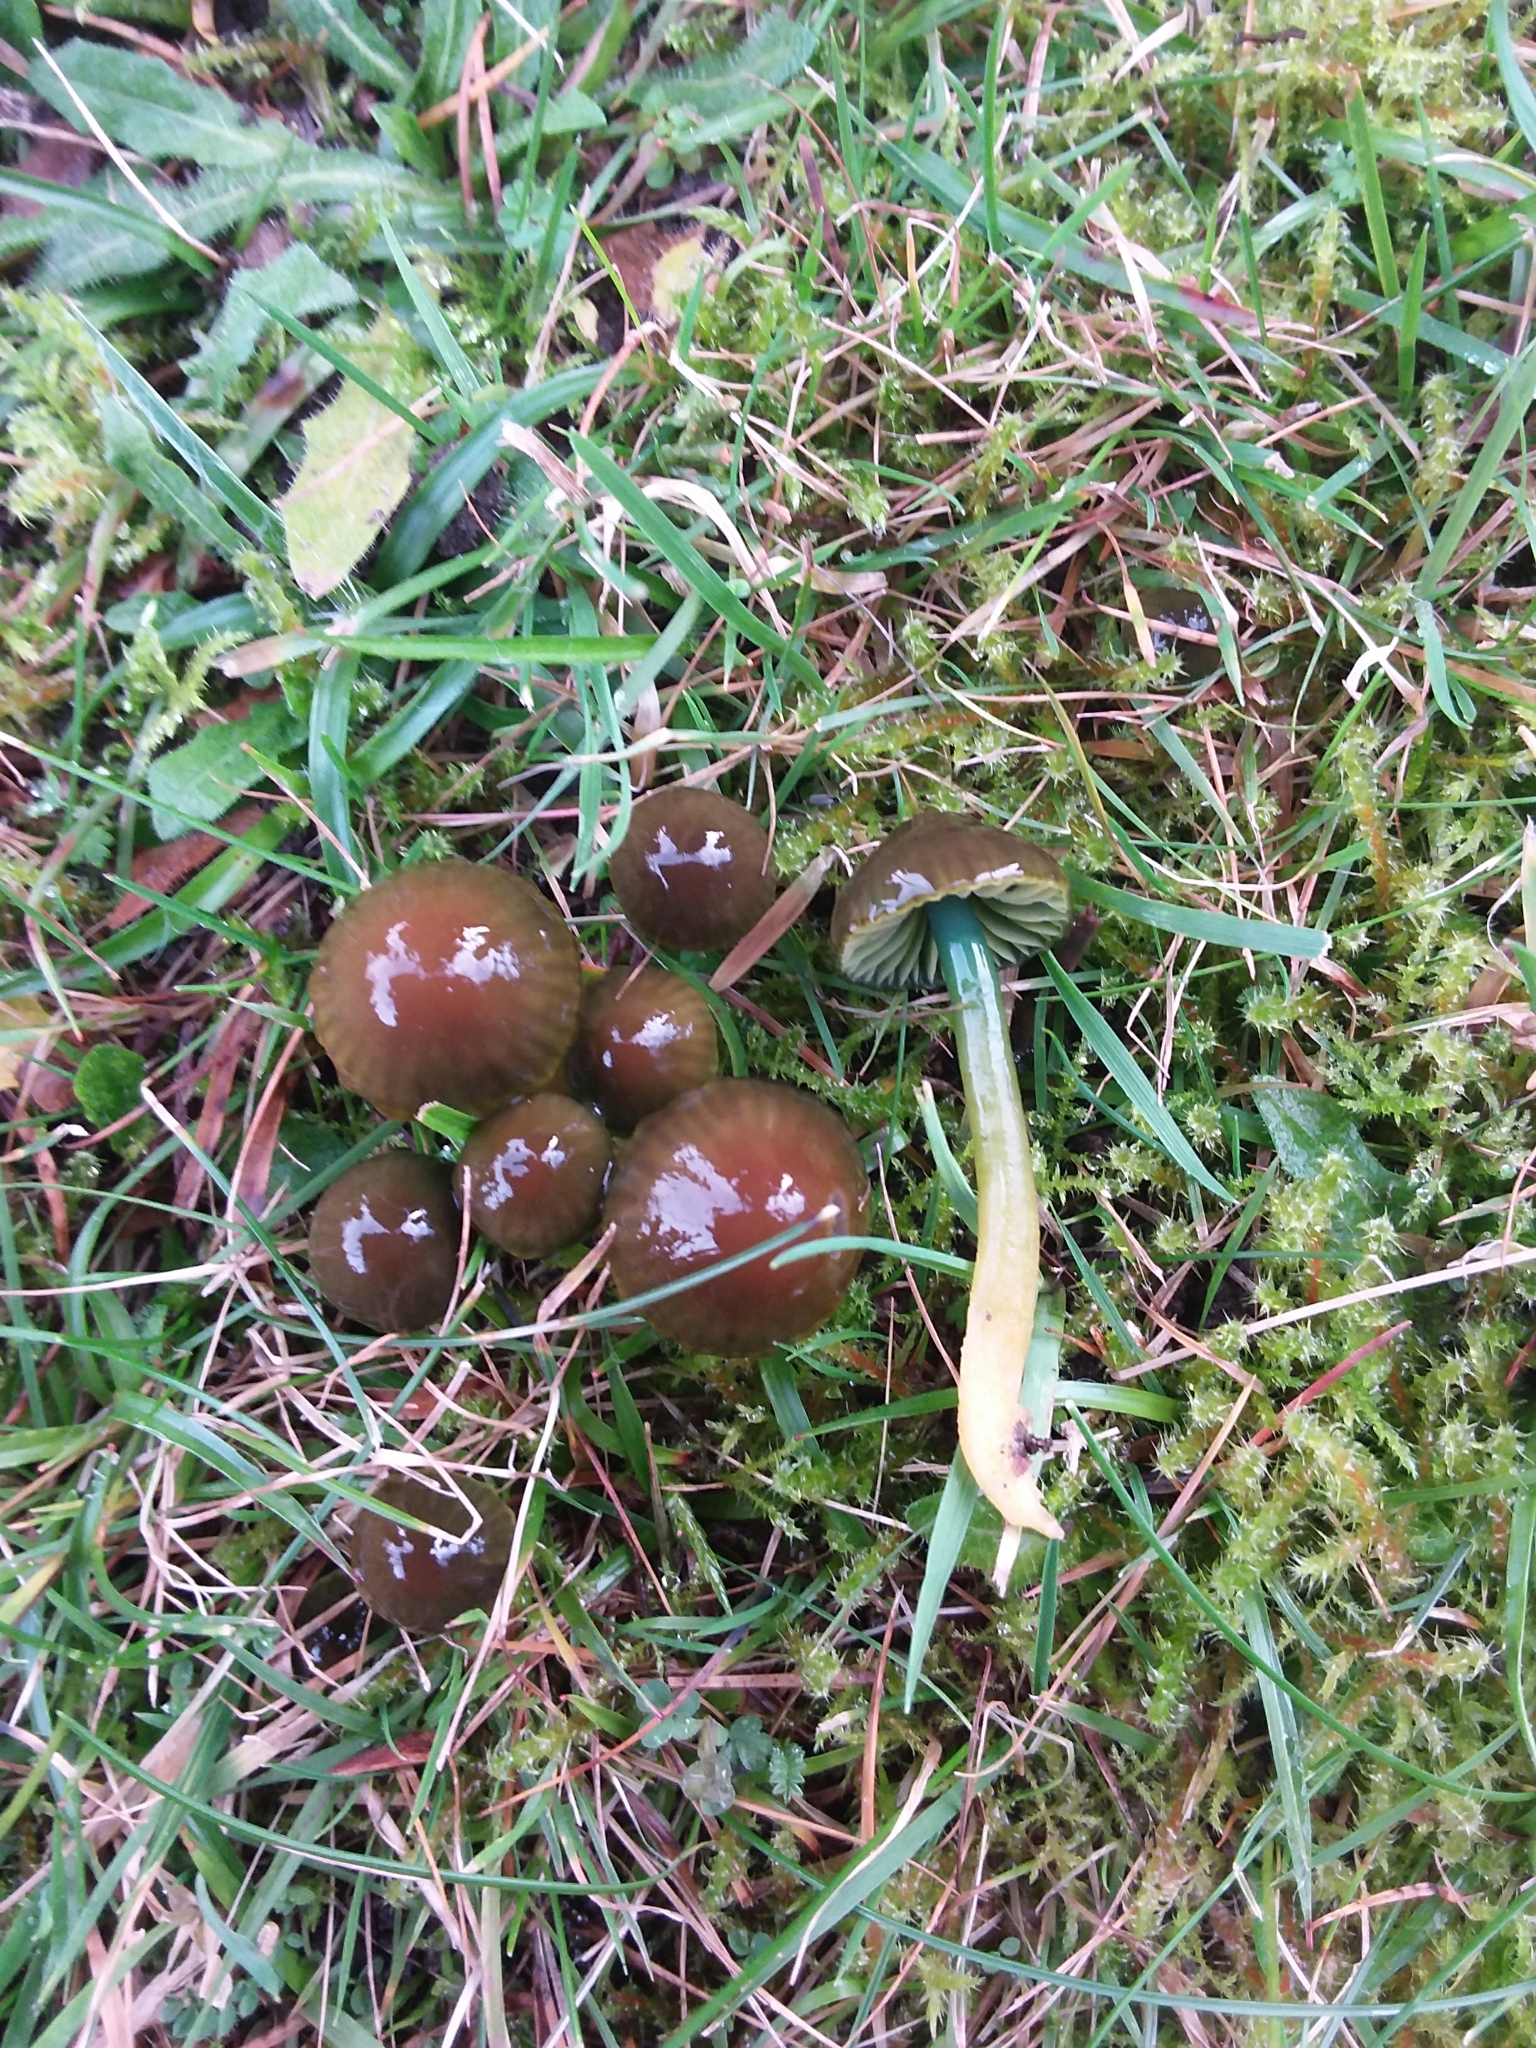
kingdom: Fungi
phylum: Basidiomycota
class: Agaricomycetes
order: Agaricales
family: Hygrophoraceae
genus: Gliophorus
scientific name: Gliophorus psittacinus
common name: Parrot wax-cap
